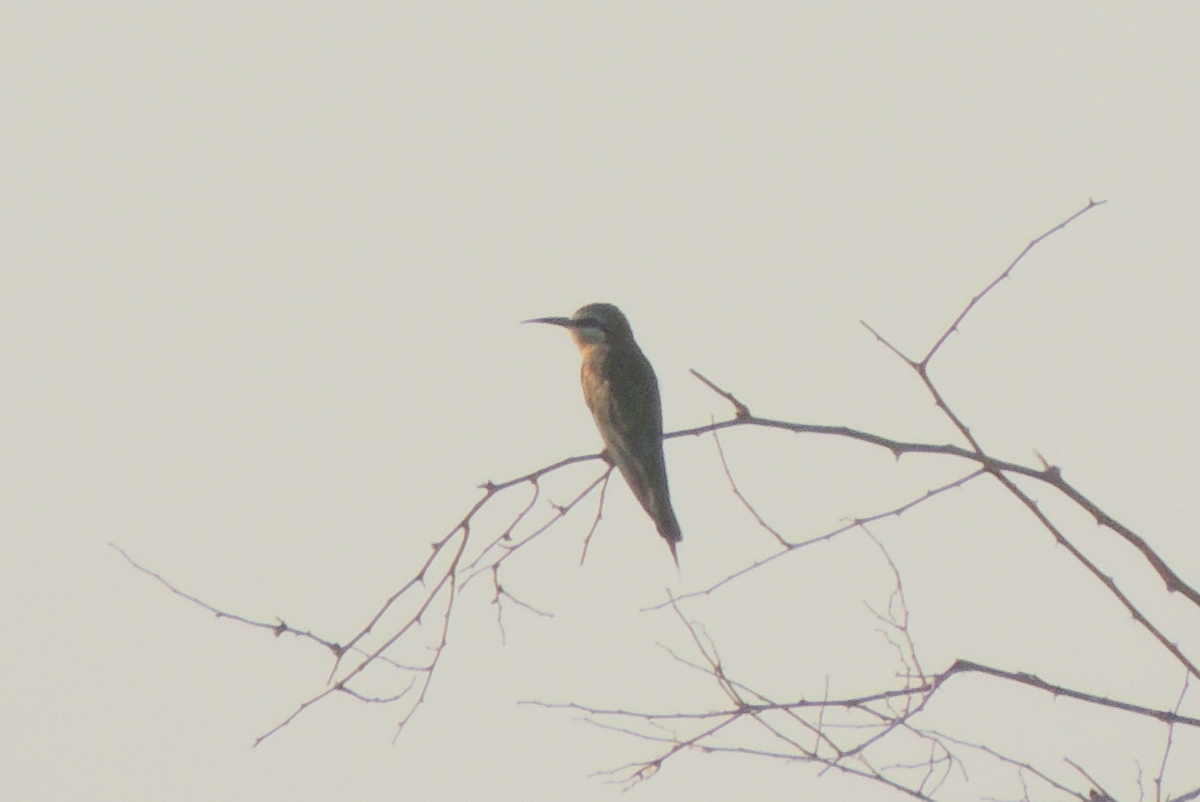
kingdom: Animalia
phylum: Chordata
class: Aves
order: Coraciiformes
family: Meropidae
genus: Merops
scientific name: Merops persicus
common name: Blue-cheeked bee-eater
